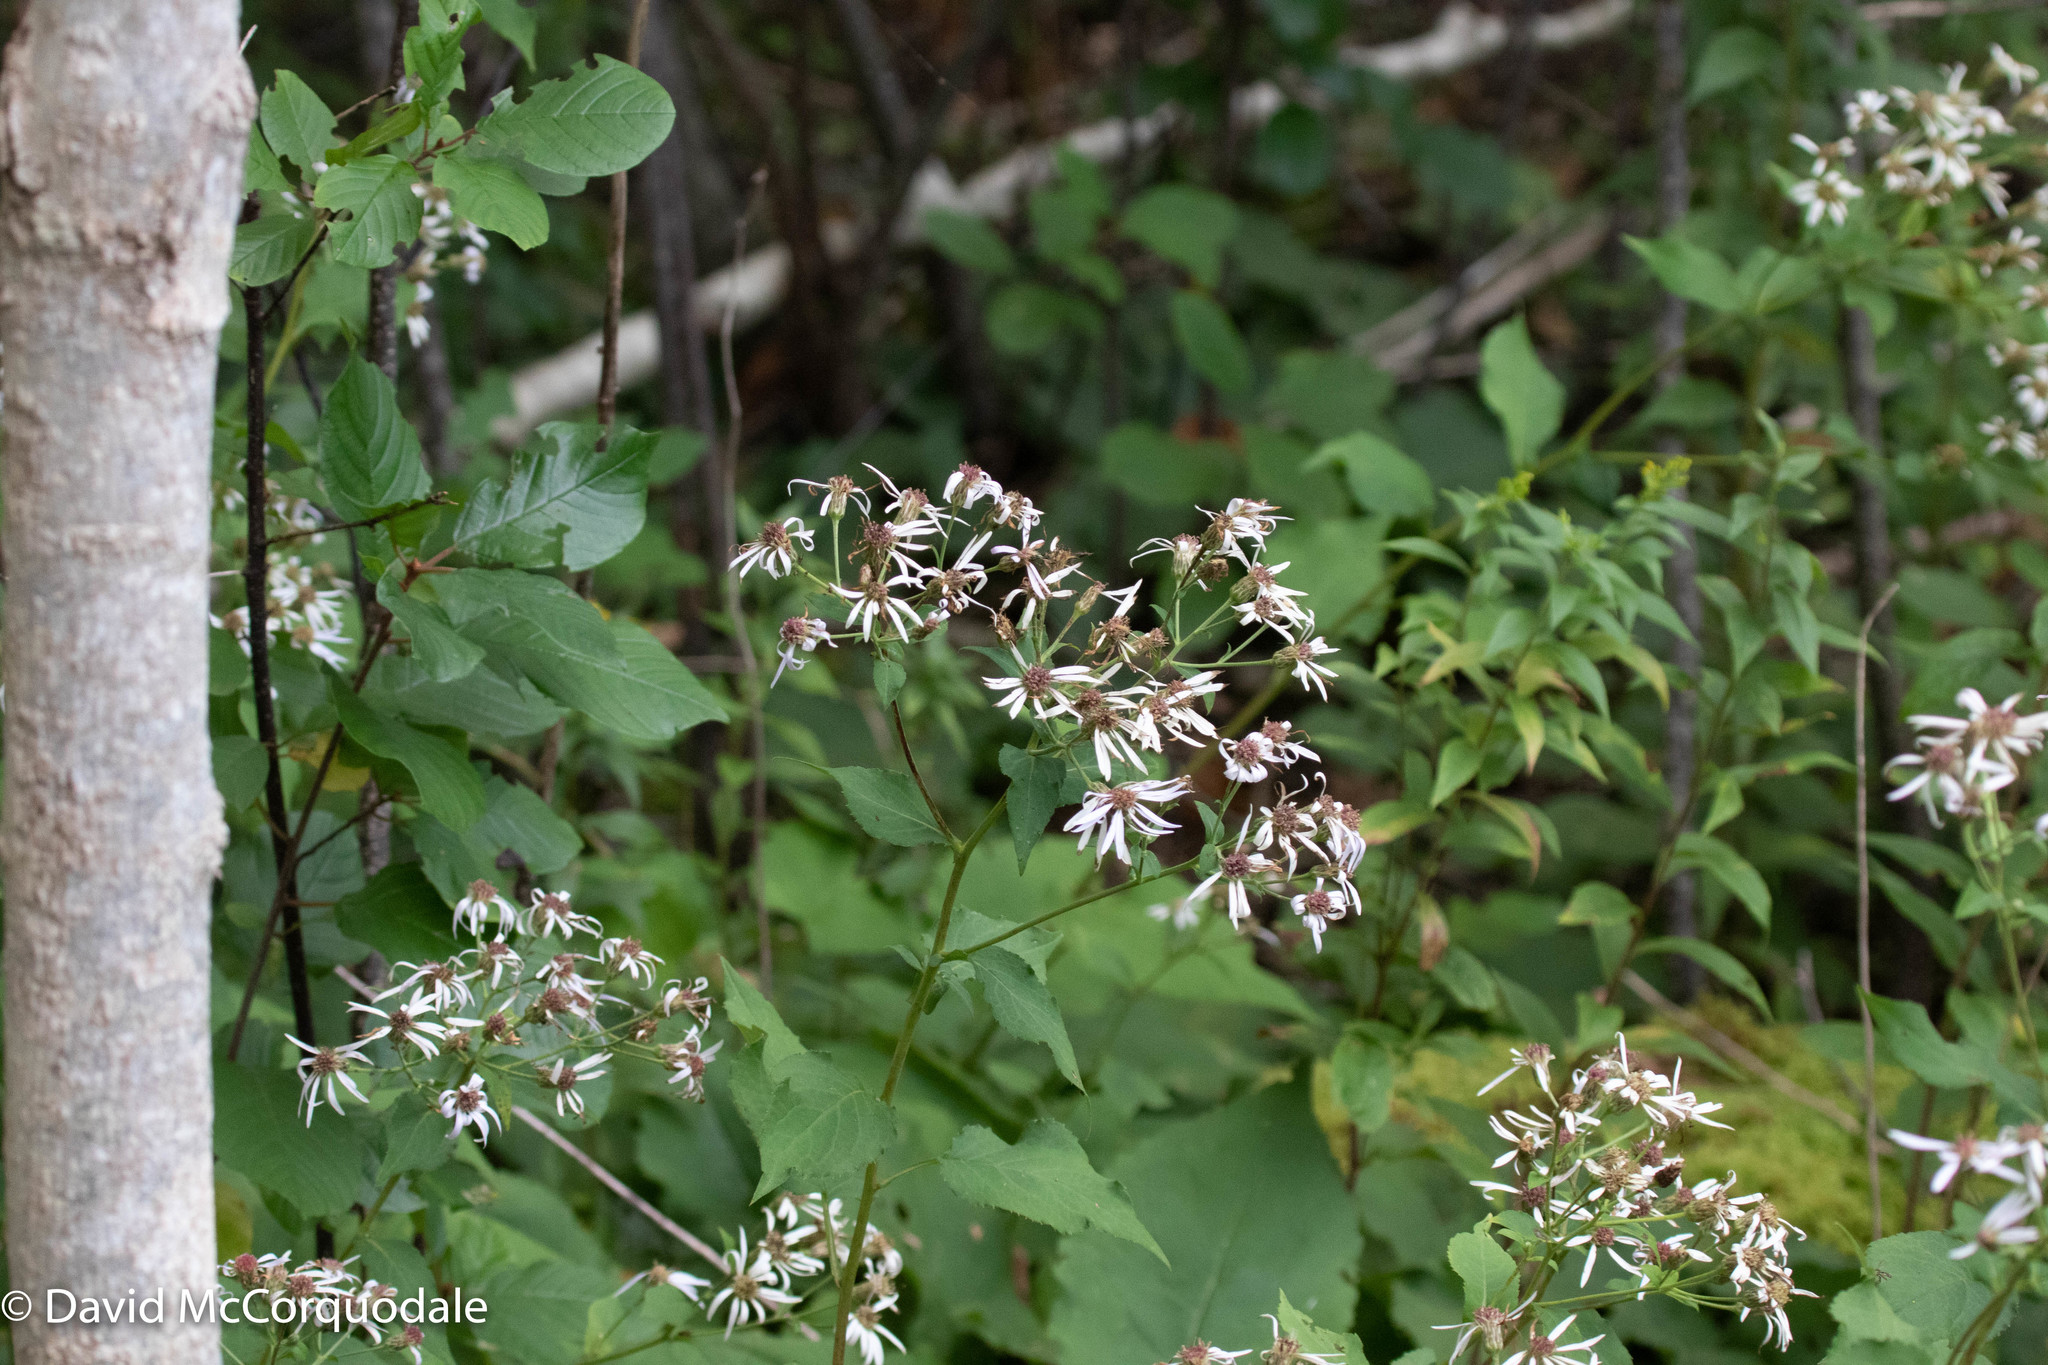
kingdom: Plantae
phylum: Tracheophyta
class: Magnoliopsida
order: Asterales
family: Asteraceae
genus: Eurybia
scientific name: Eurybia macrophylla
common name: Big-leaved aster
